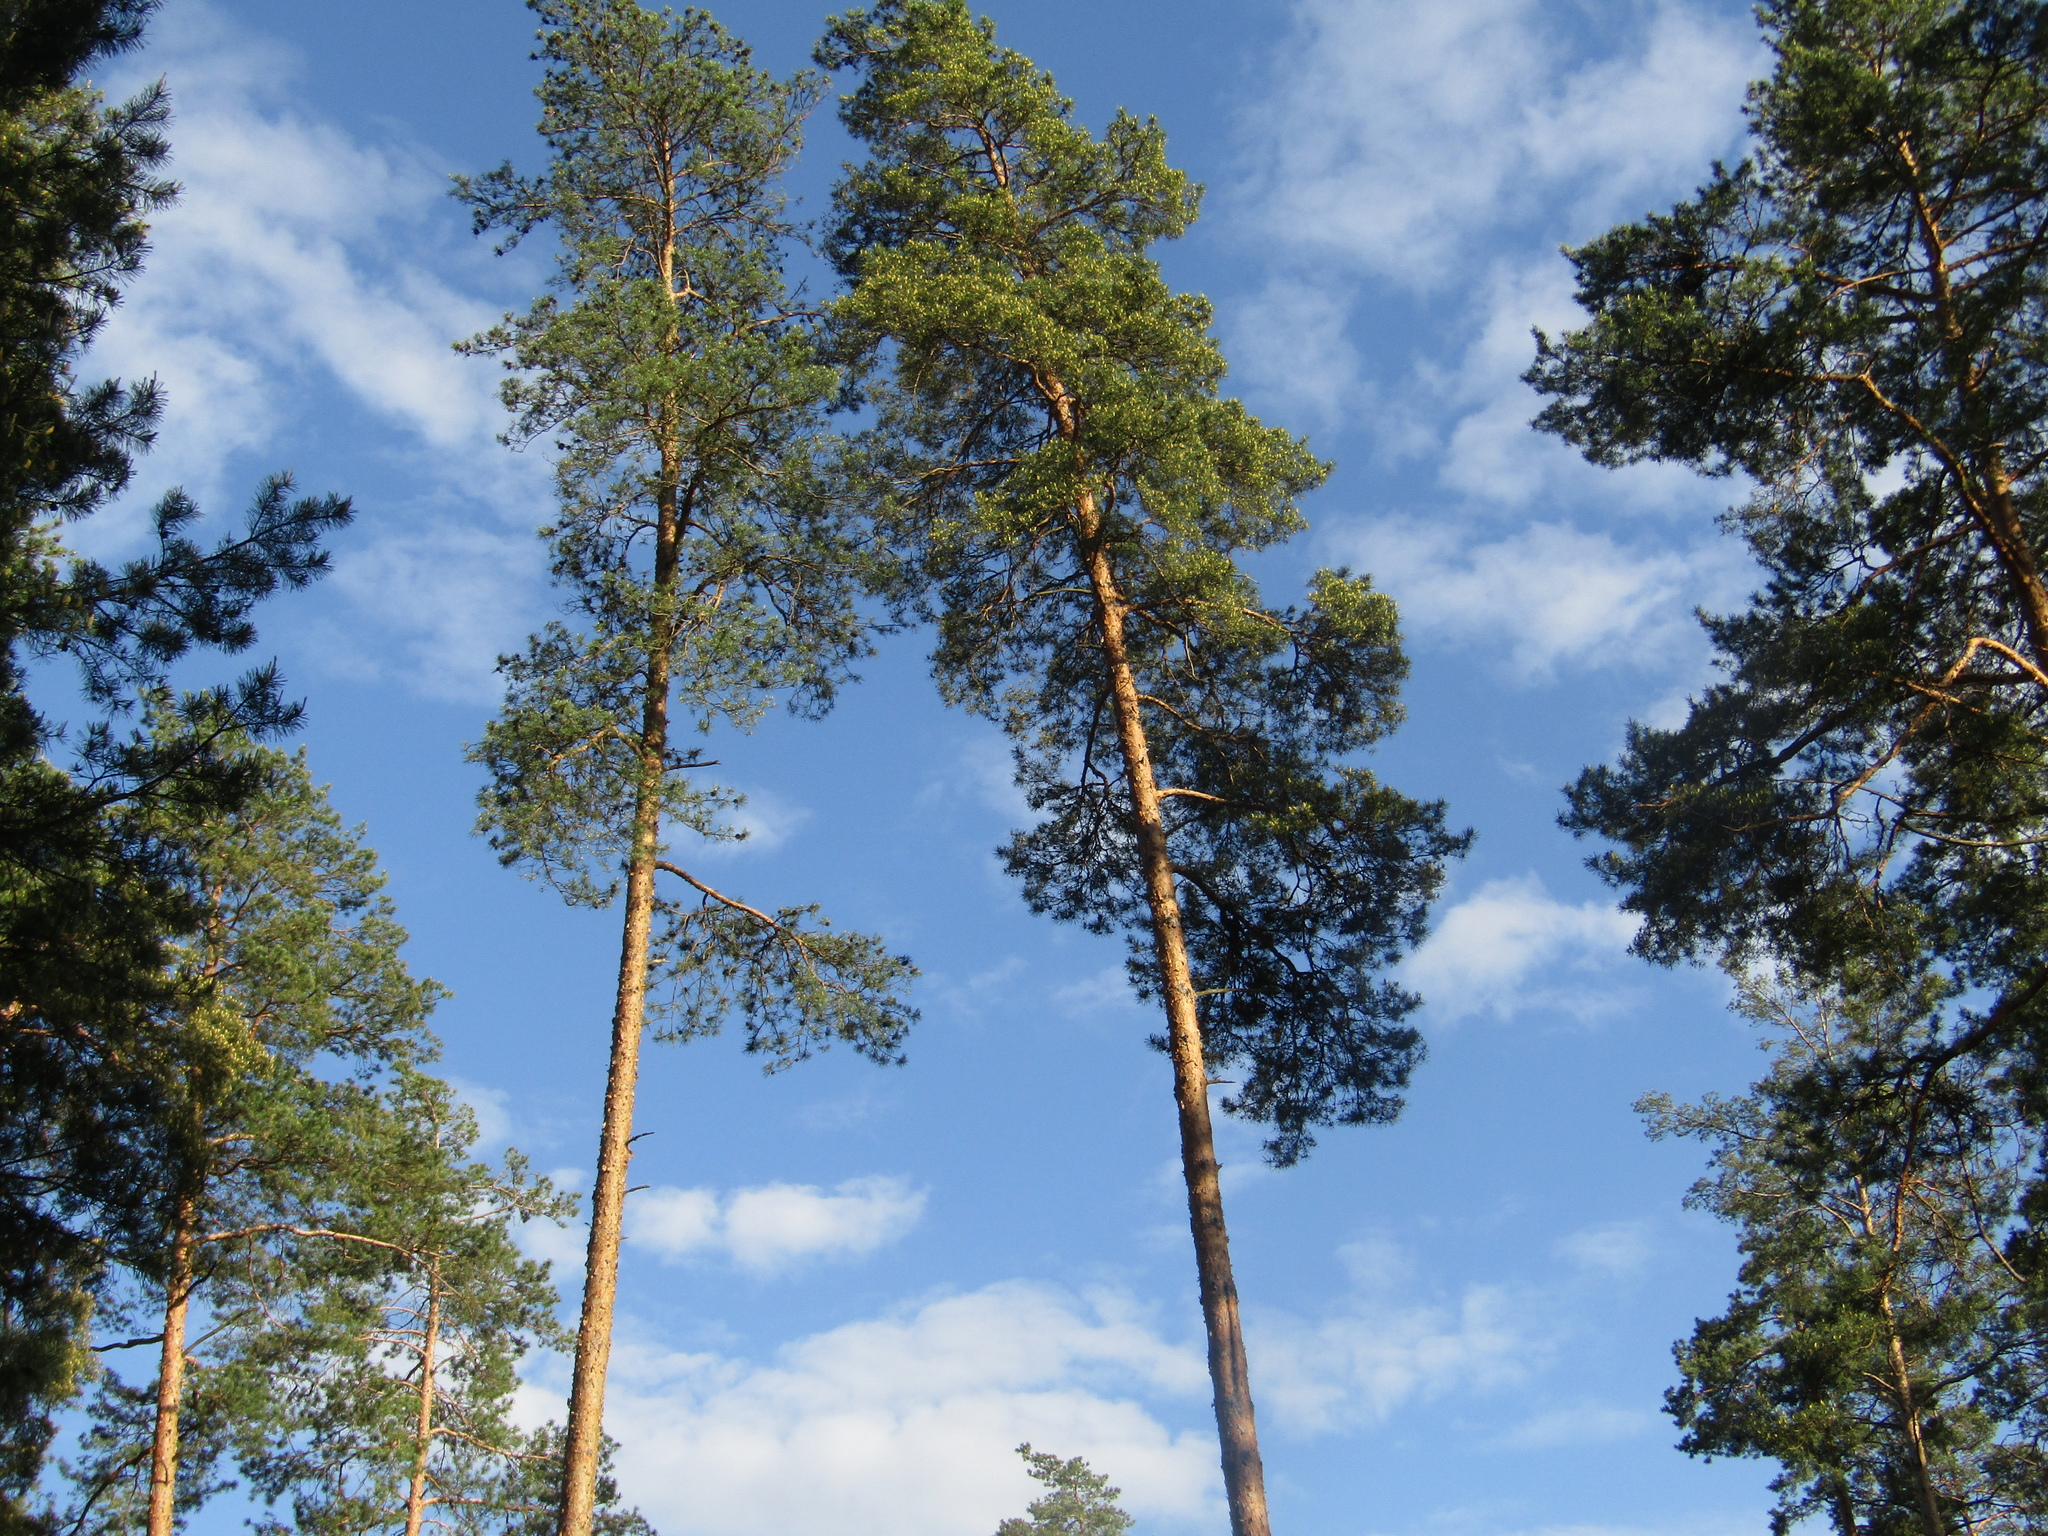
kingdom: Plantae
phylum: Tracheophyta
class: Pinopsida
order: Pinales
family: Pinaceae
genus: Pinus
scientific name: Pinus sylvestris
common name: Scots pine
